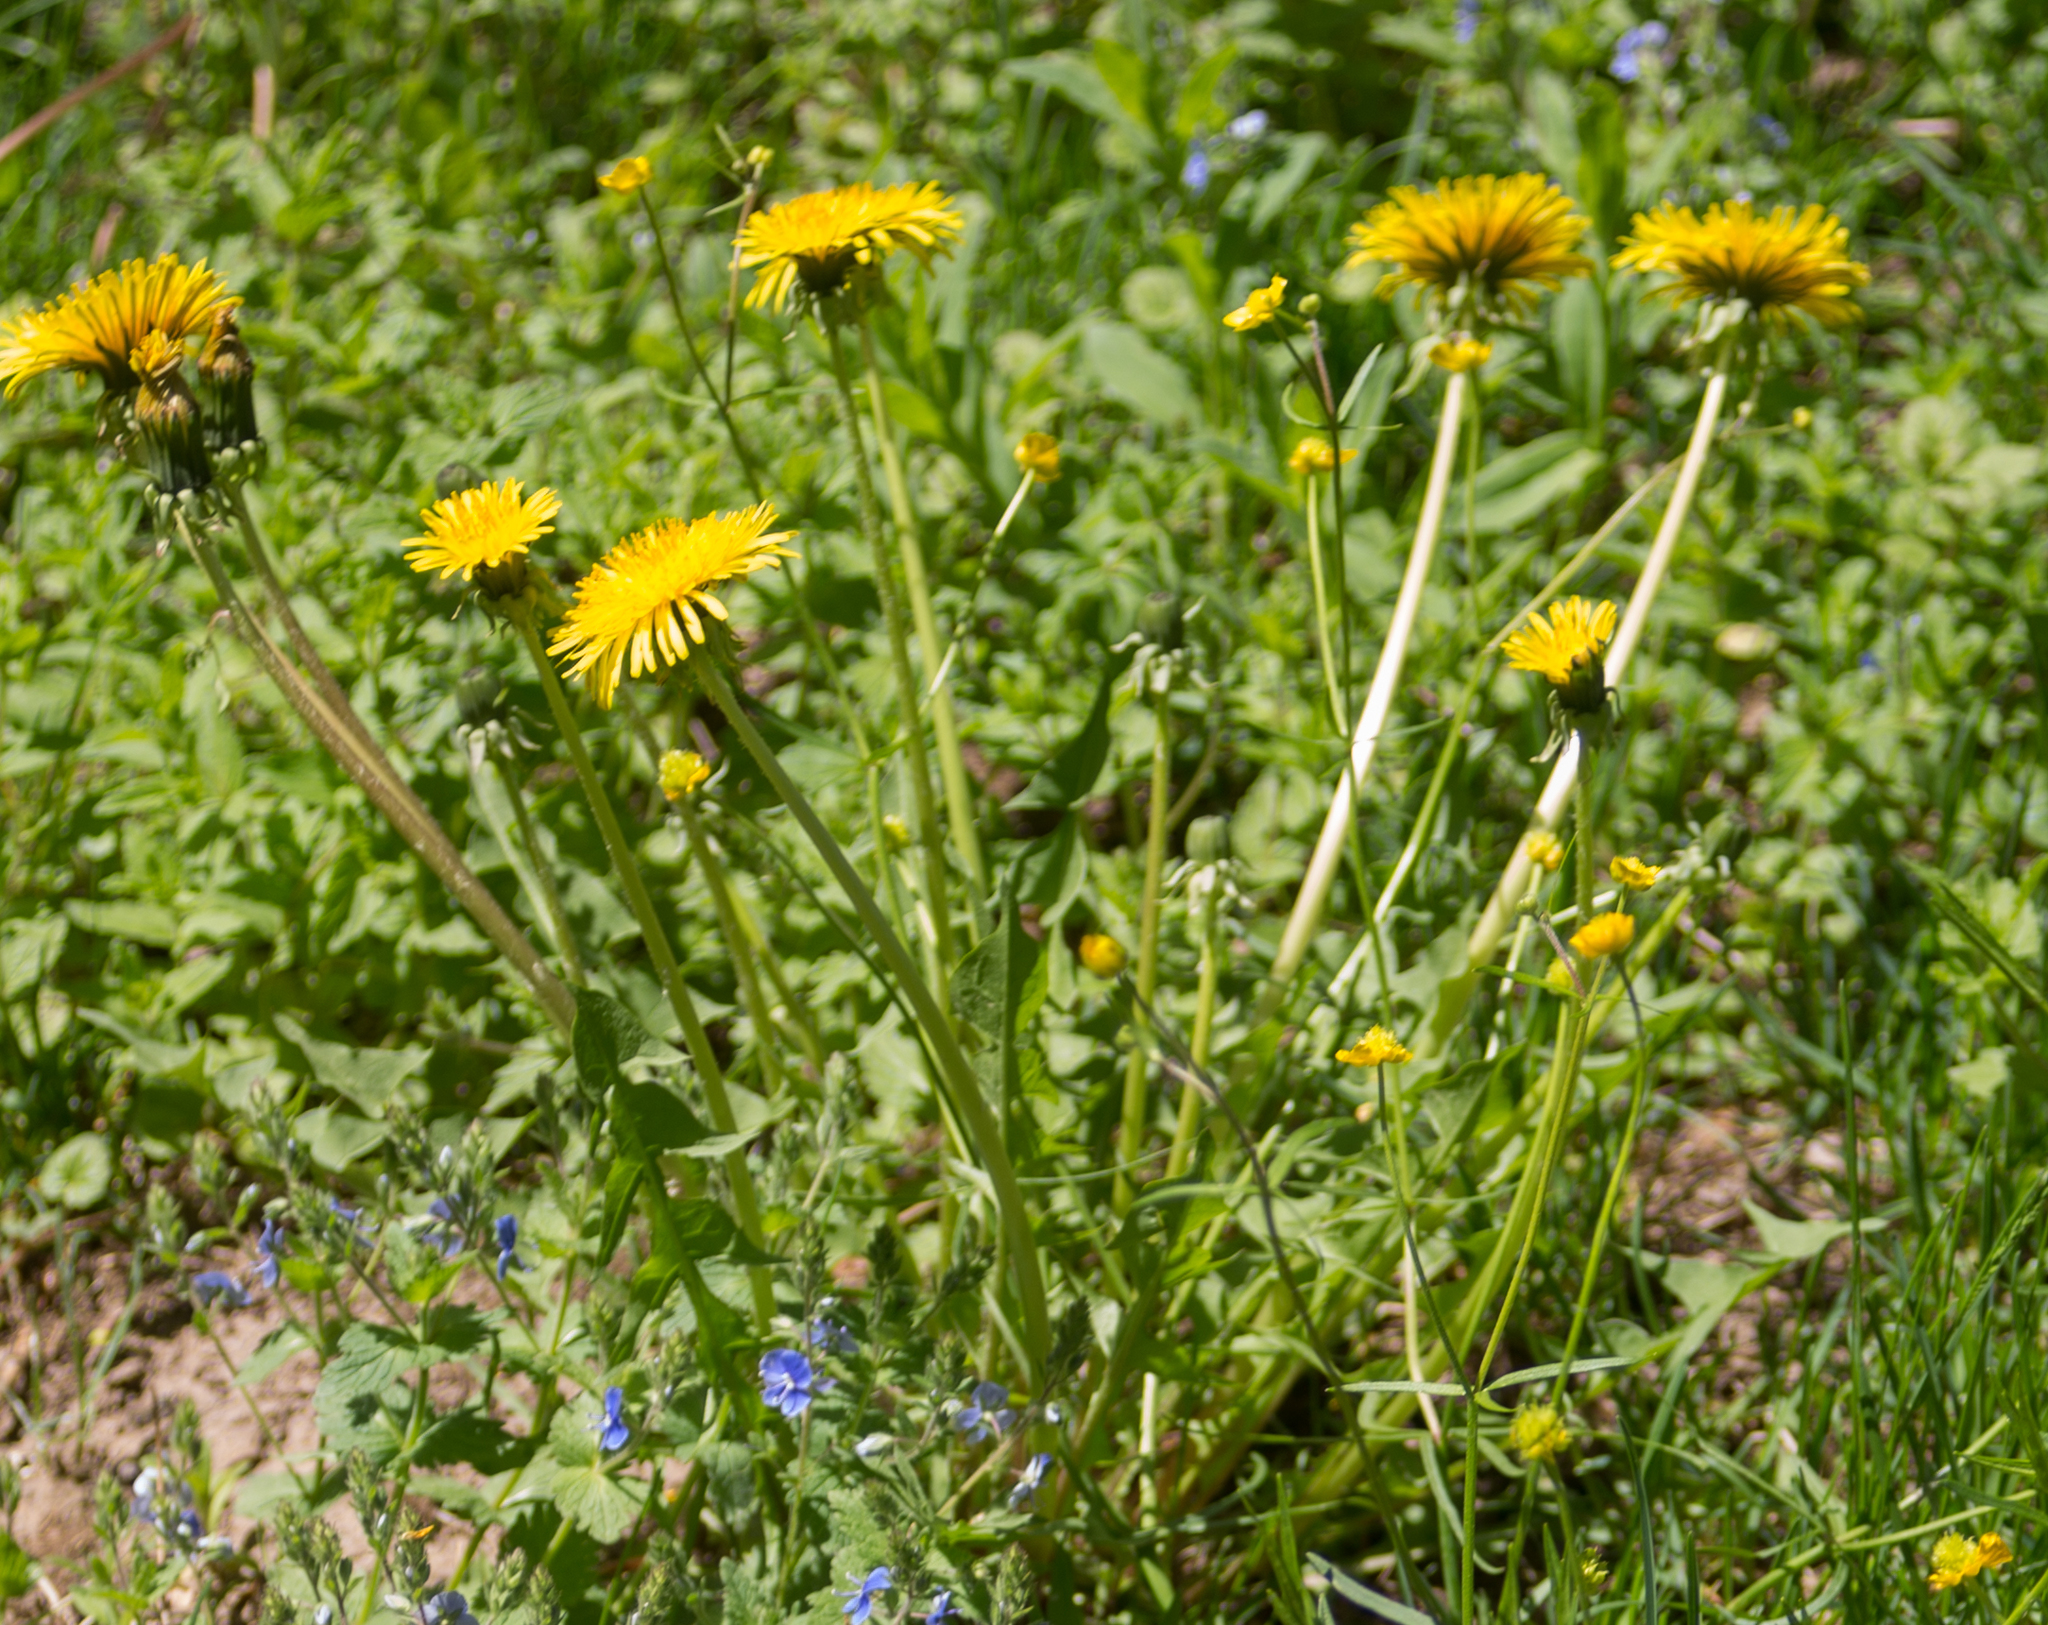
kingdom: Plantae
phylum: Tracheophyta
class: Magnoliopsida
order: Asterales
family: Asteraceae
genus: Taraxacum
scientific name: Taraxacum officinale
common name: Common dandelion
